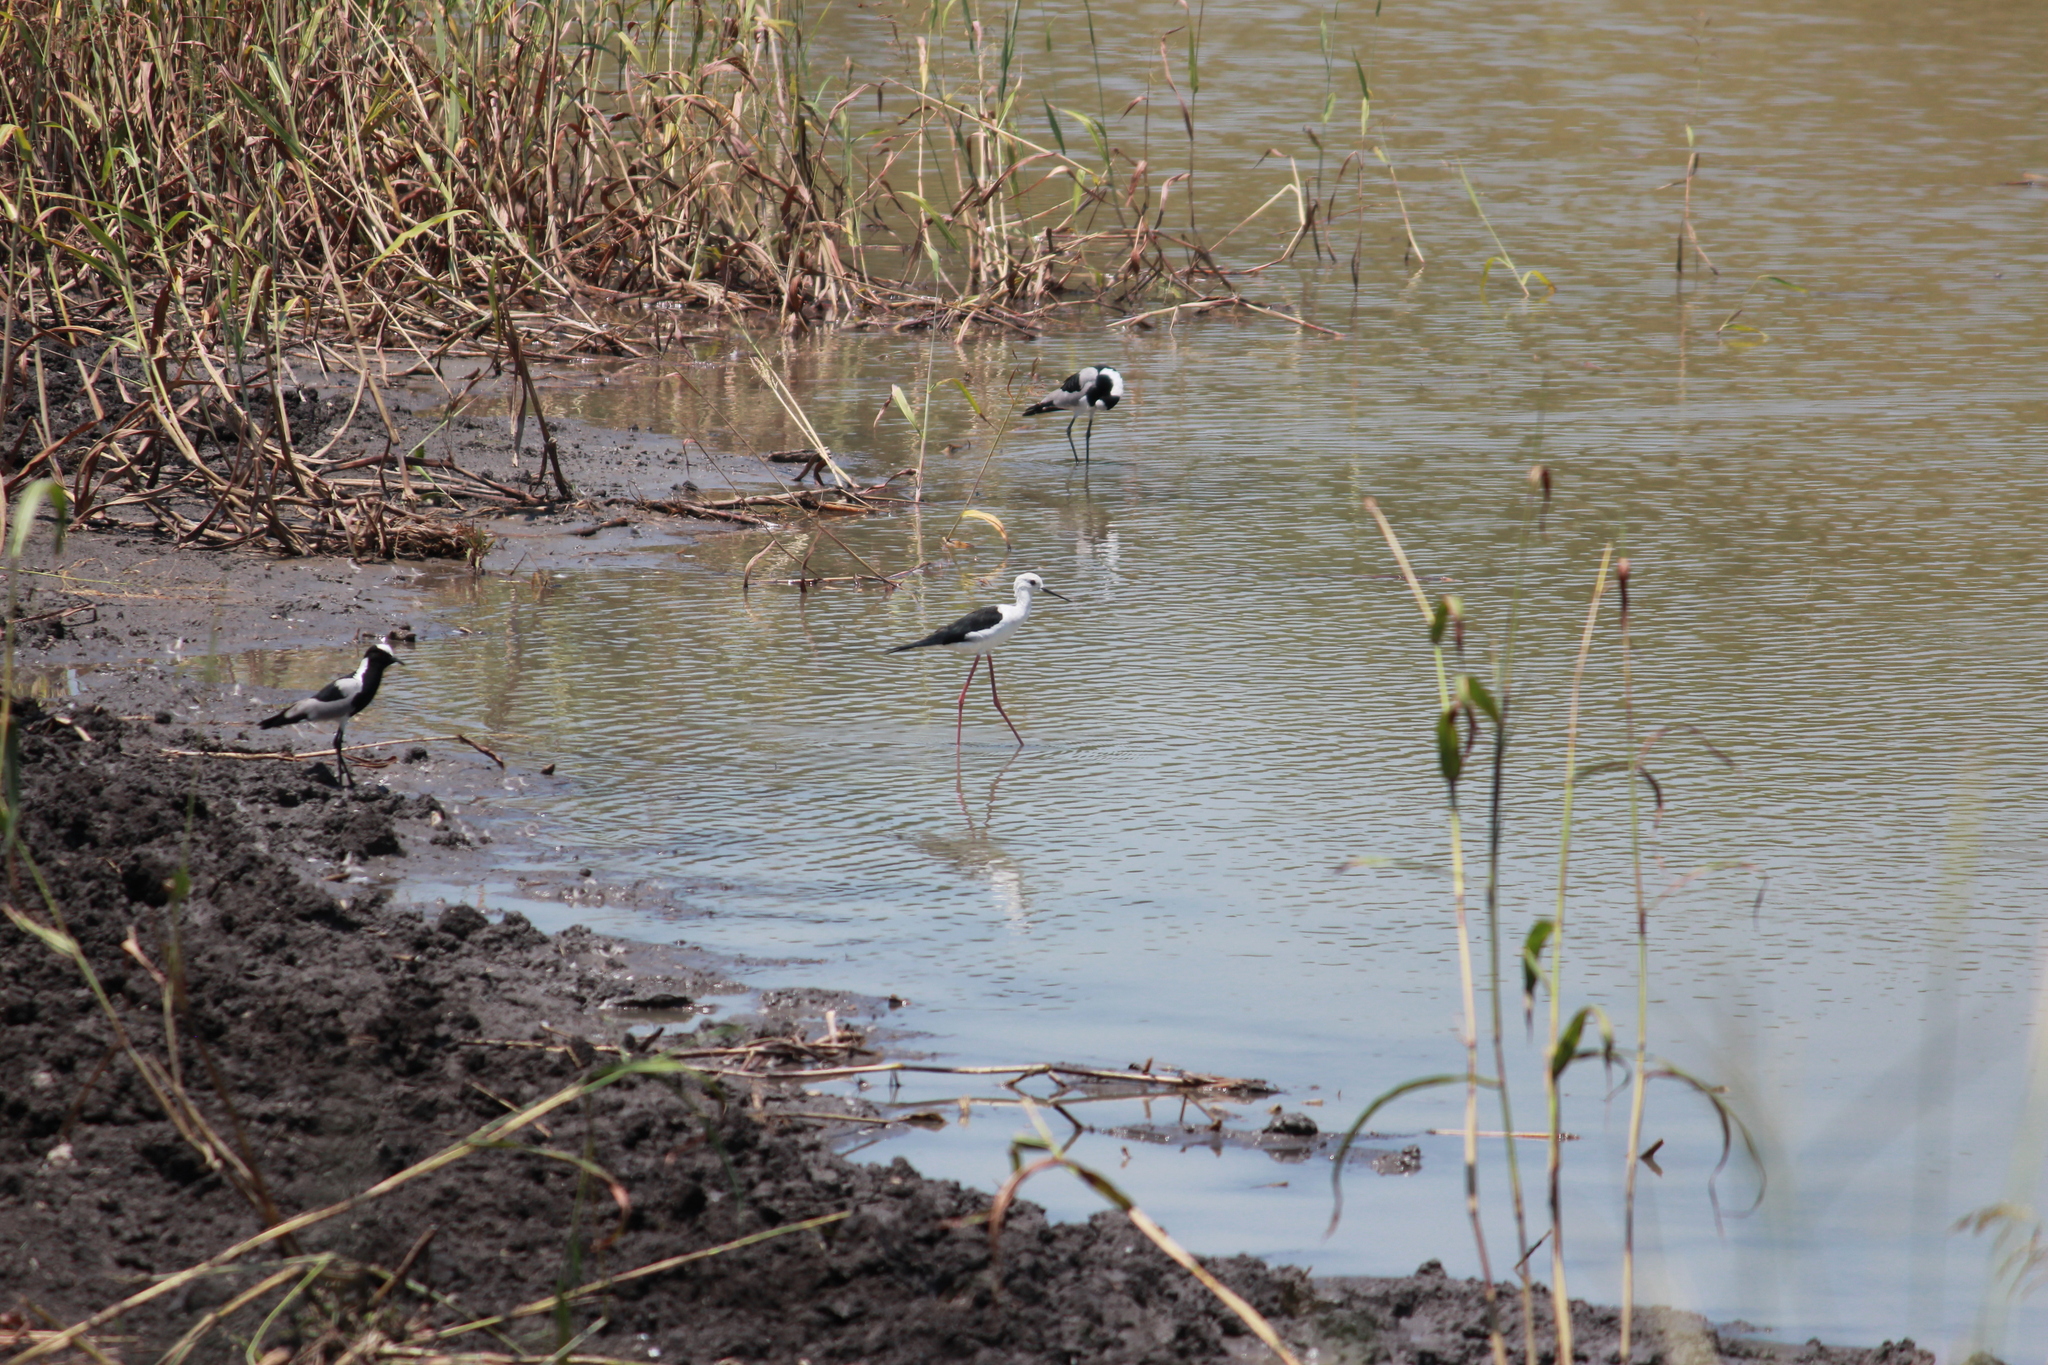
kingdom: Animalia
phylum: Chordata
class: Aves
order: Charadriiformes
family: Recurvirostridae
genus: Himantopus
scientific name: Himantopus himantopus
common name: Black-winged stilt
